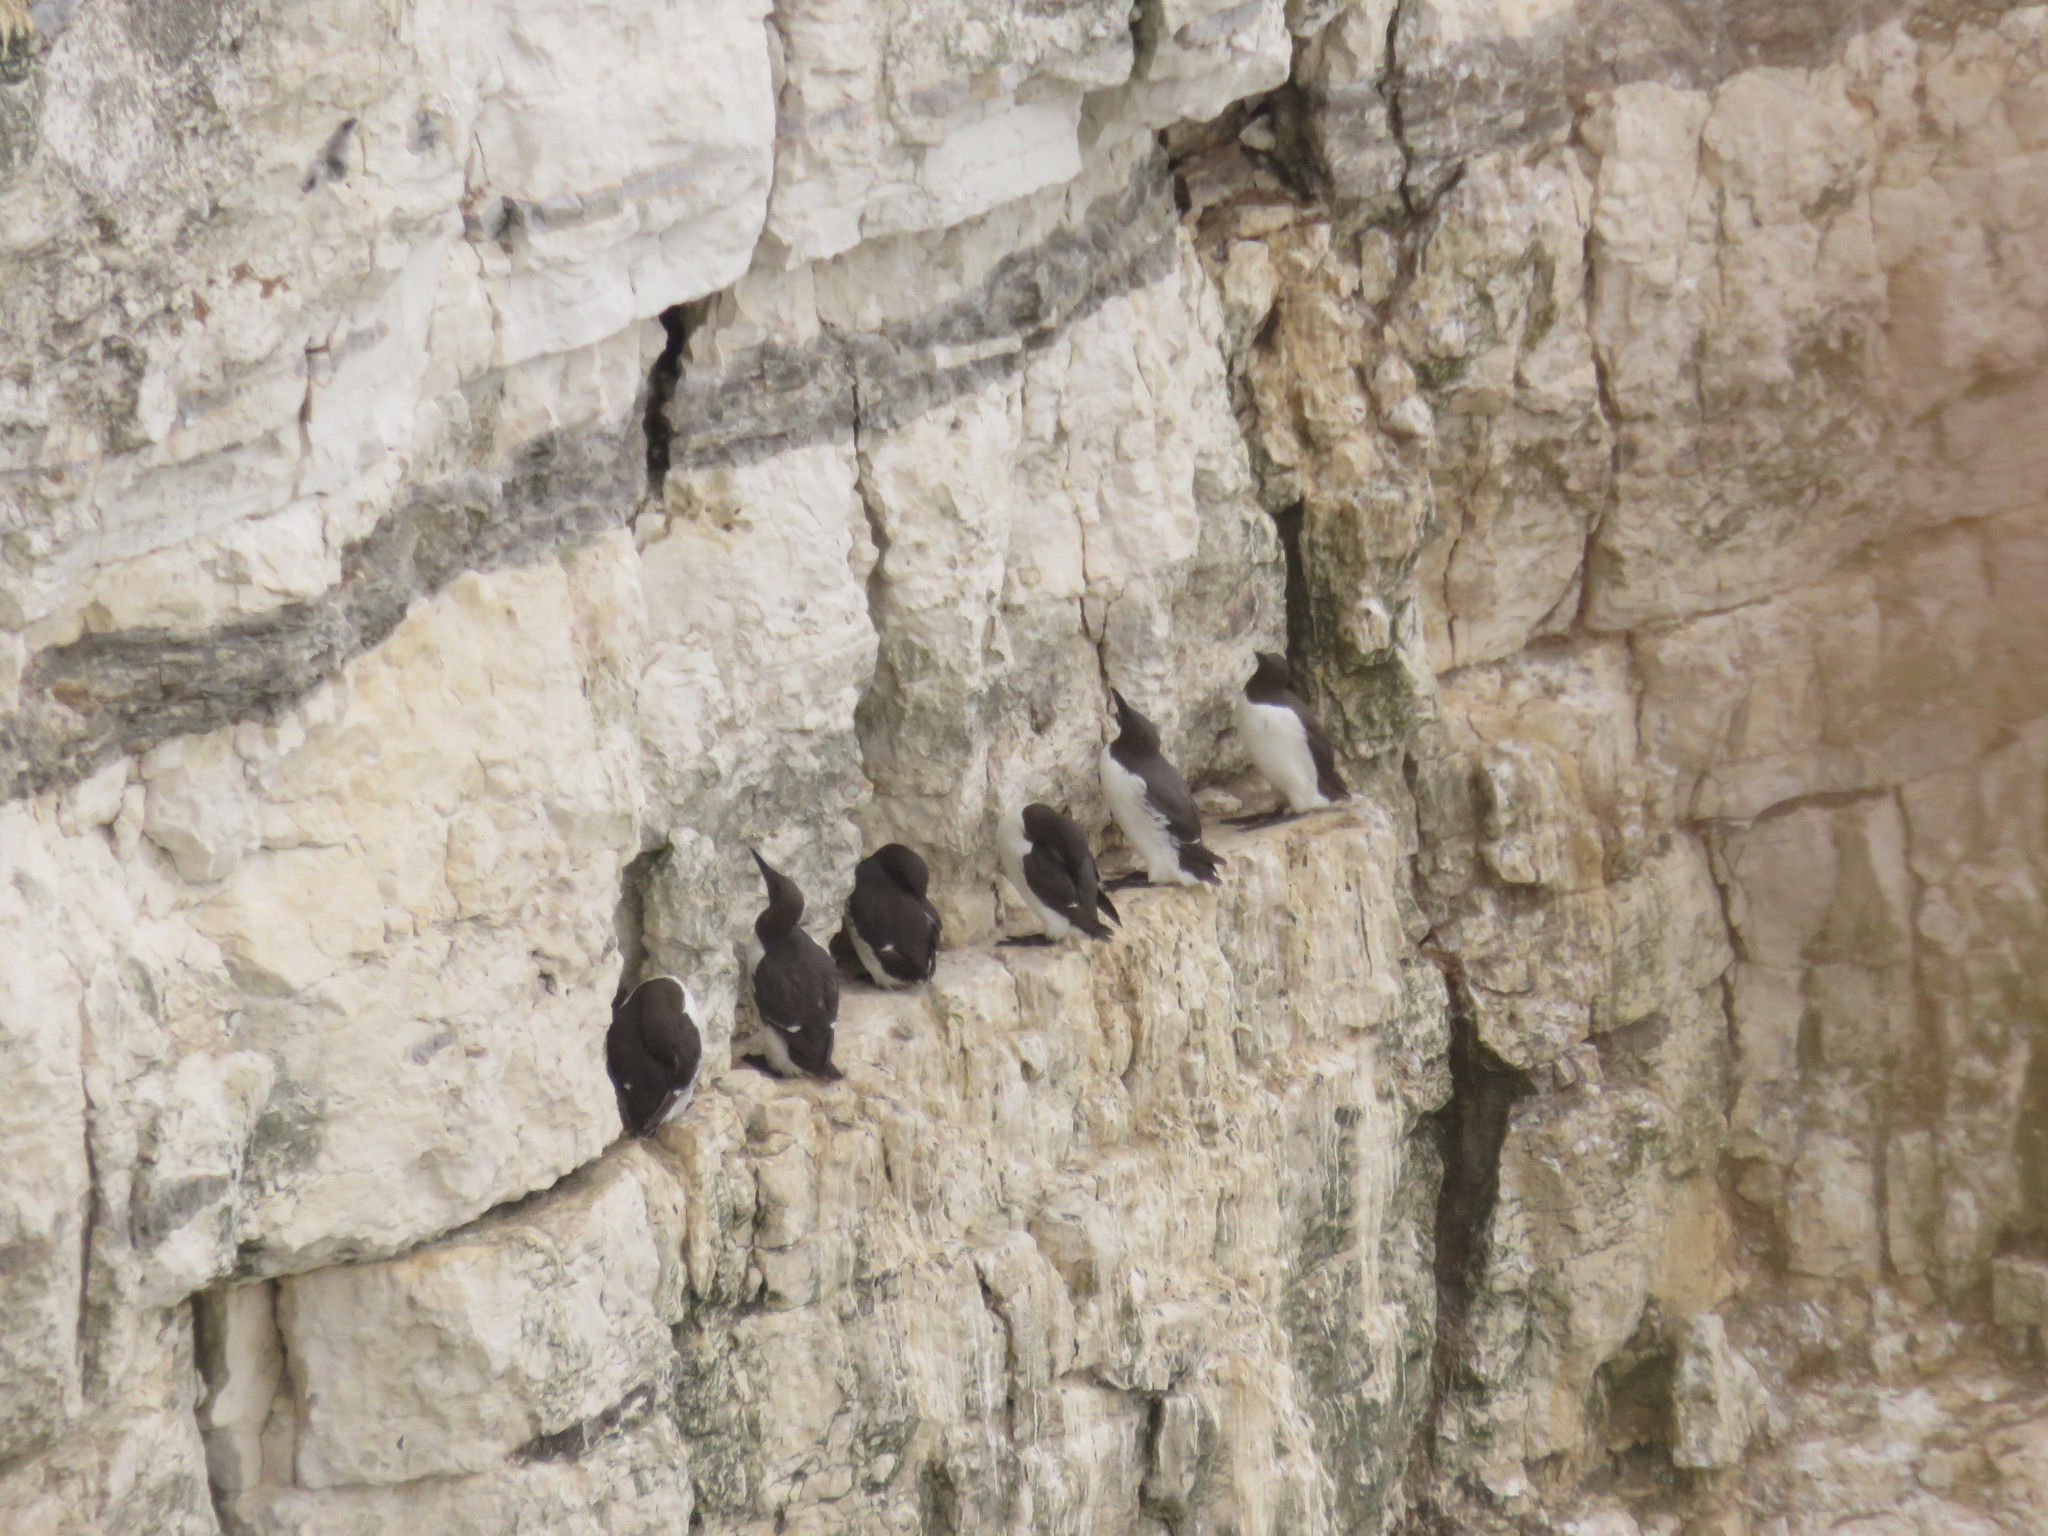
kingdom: Animalia
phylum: Chordata
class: Aves
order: Charadriiformes
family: Alcidae
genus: Uria
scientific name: Uria aalge
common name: Common murre
